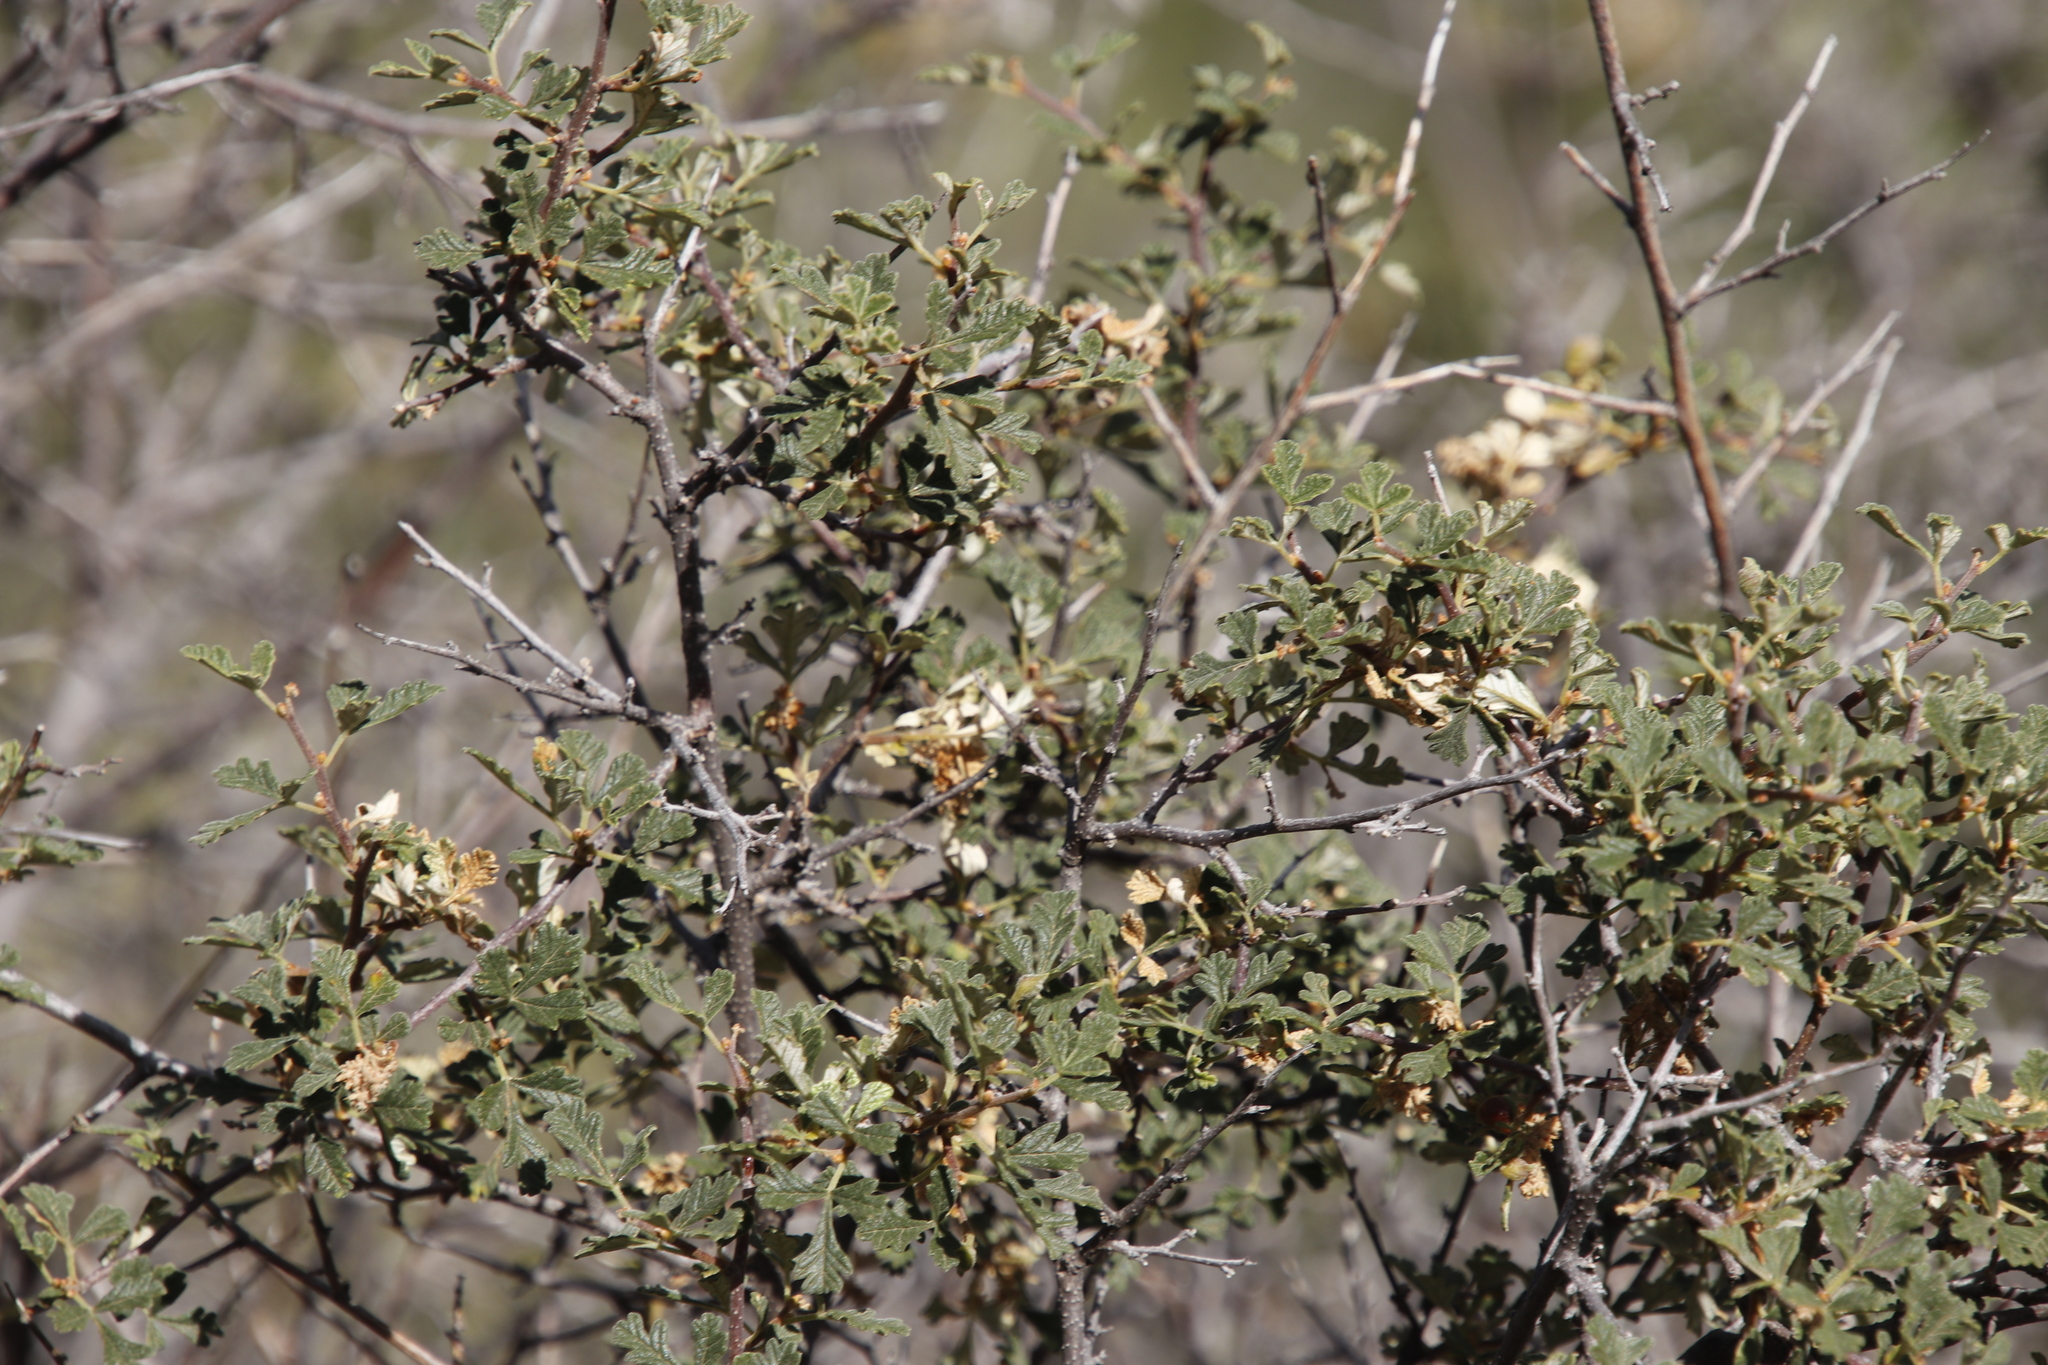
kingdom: Plantae
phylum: Tracheophyta
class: Magnoliopsida
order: Sapindales
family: Anacardiaceae
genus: Searsia
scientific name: Searsia incisa
